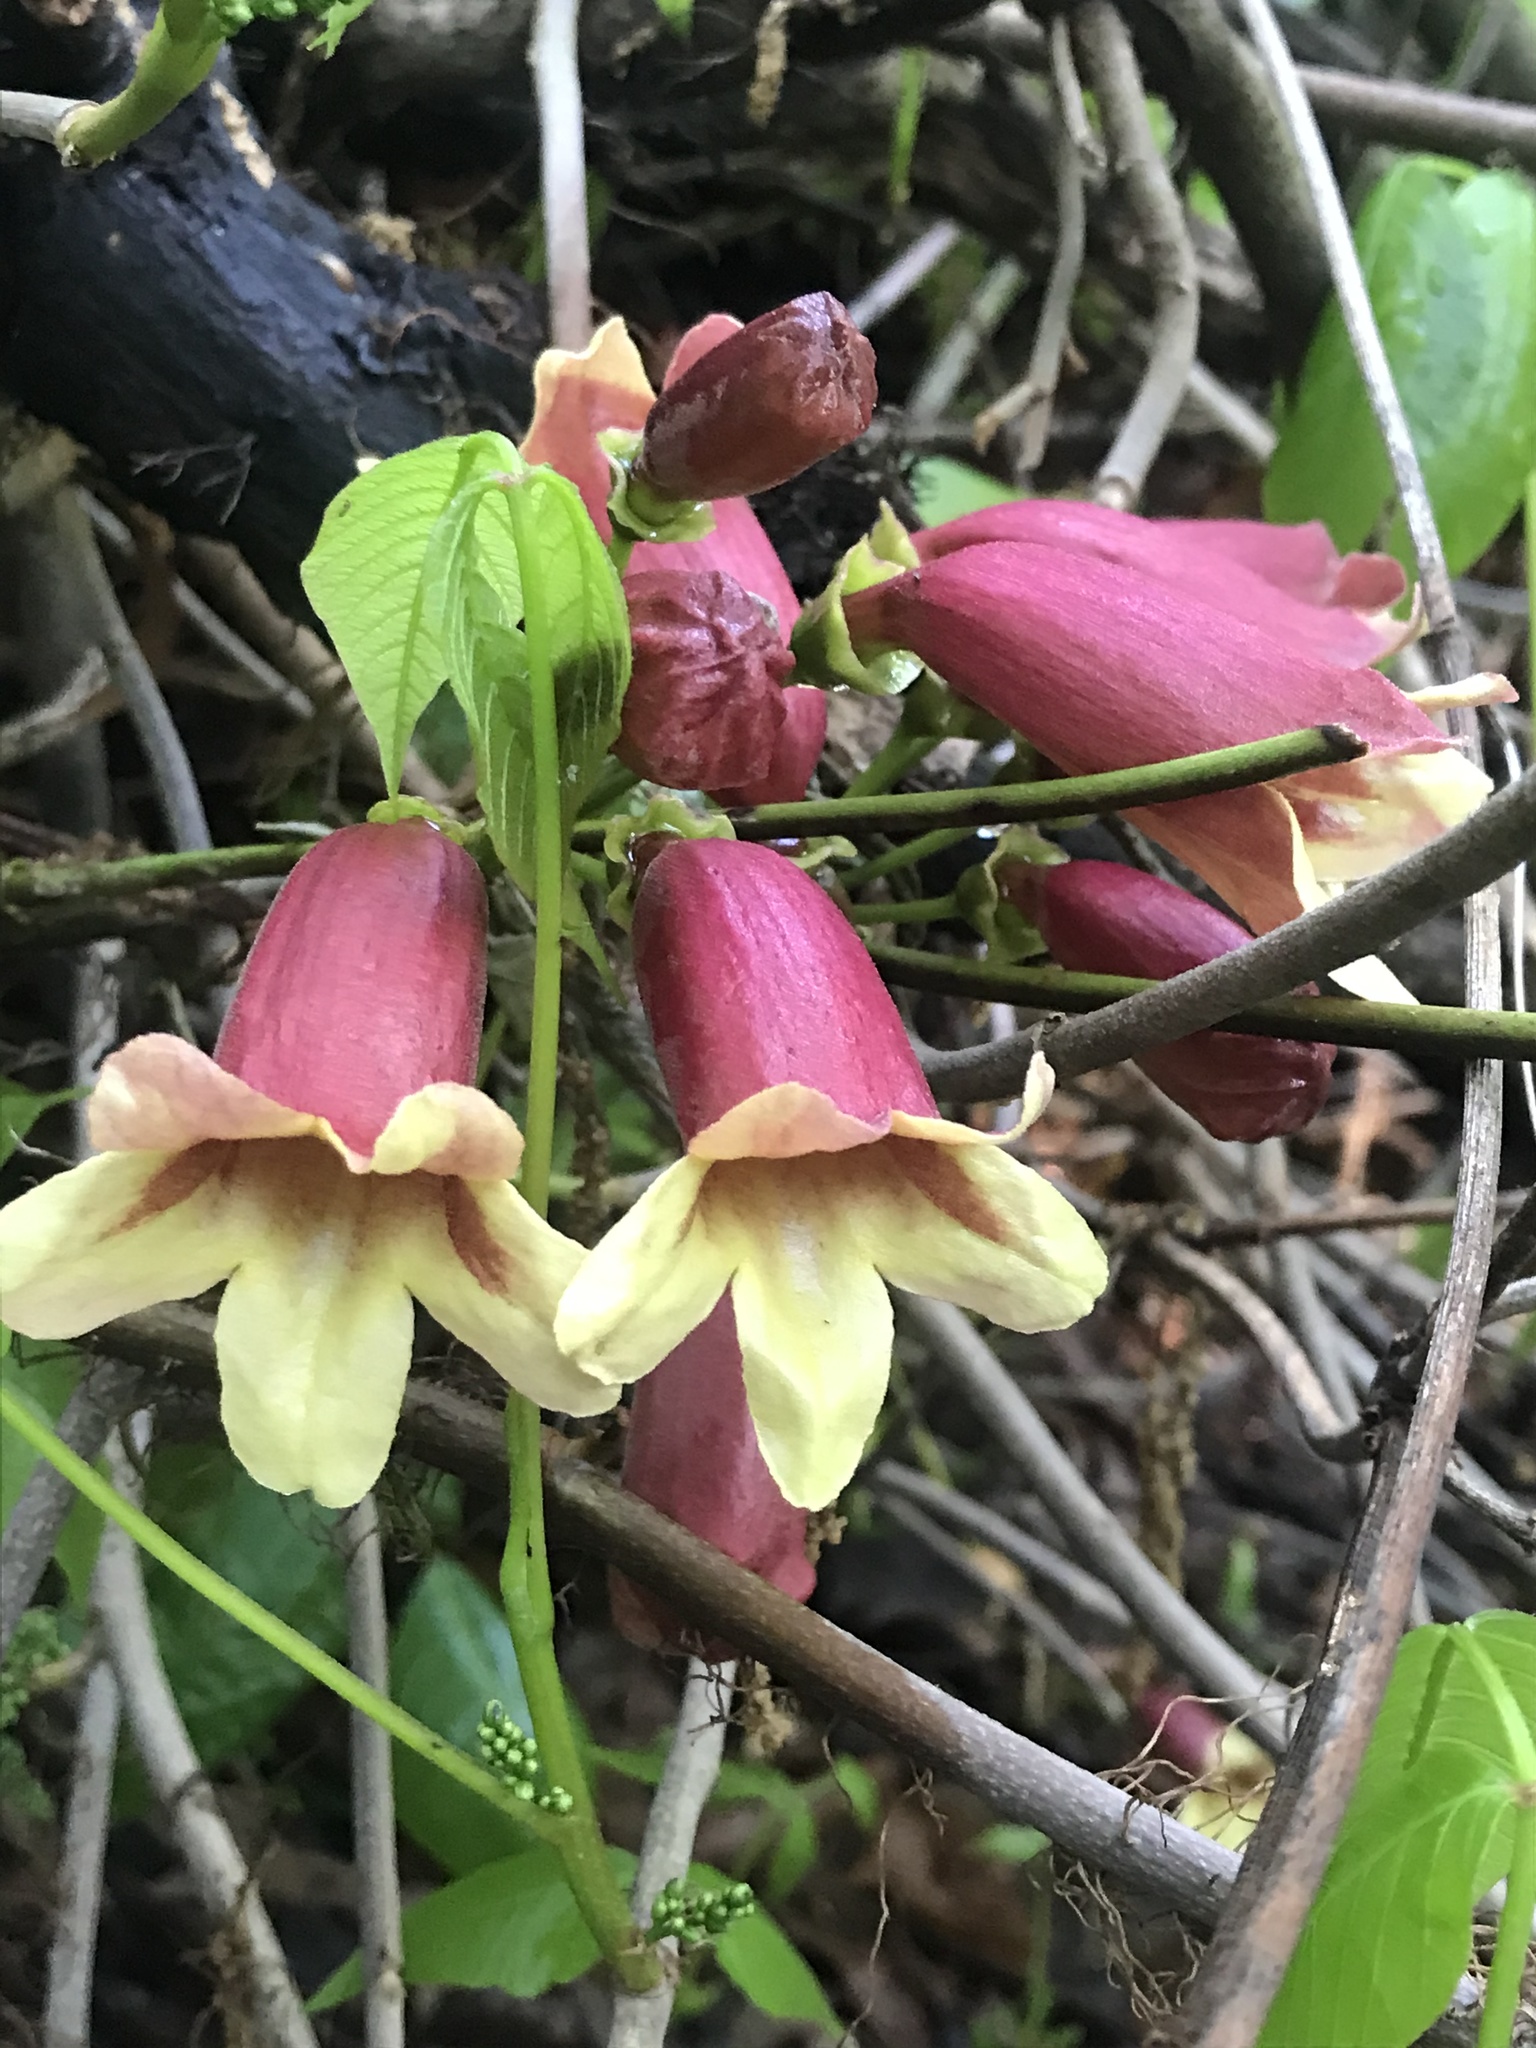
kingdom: Plantae
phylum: Tracheophyta
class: Magnoliopsida
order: Lamiales
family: Bignoniaceae
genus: Bignonia
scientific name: Bignonia capreolata
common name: Crossvine
